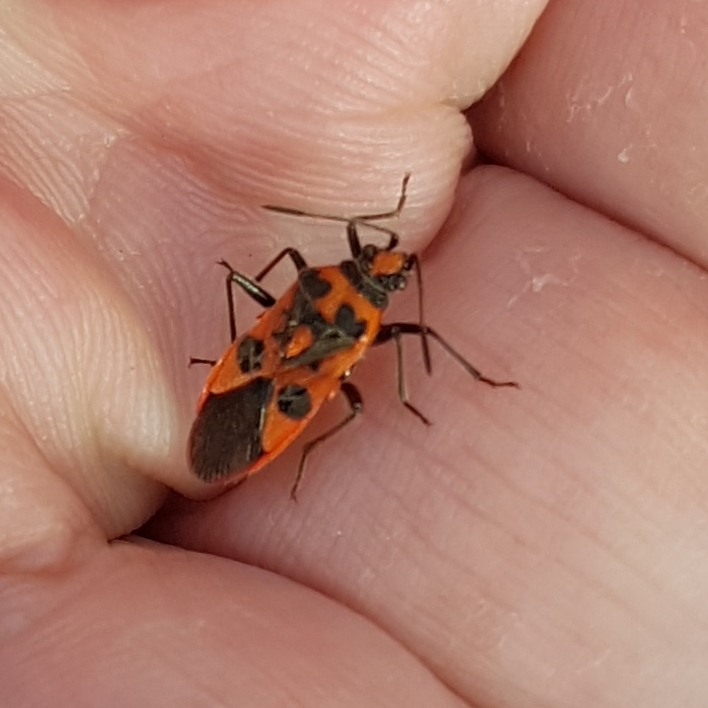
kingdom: Animalia
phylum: Arthropoda
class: Insecta
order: Hemiptera
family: Rhopalidae
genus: Corizus
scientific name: Corizus hyoscyami
